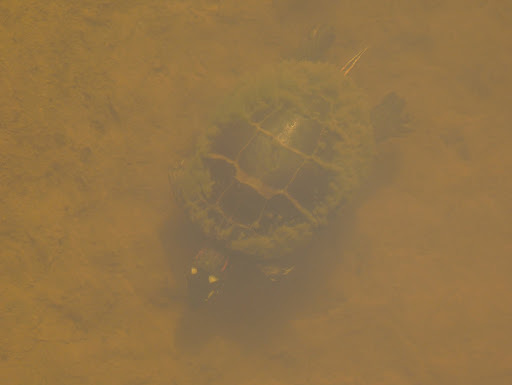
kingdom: Animalia
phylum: Chordata
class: Testudines
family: Emydidae
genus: Chrysemys
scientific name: Chrysemys picta
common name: Painted turtle
